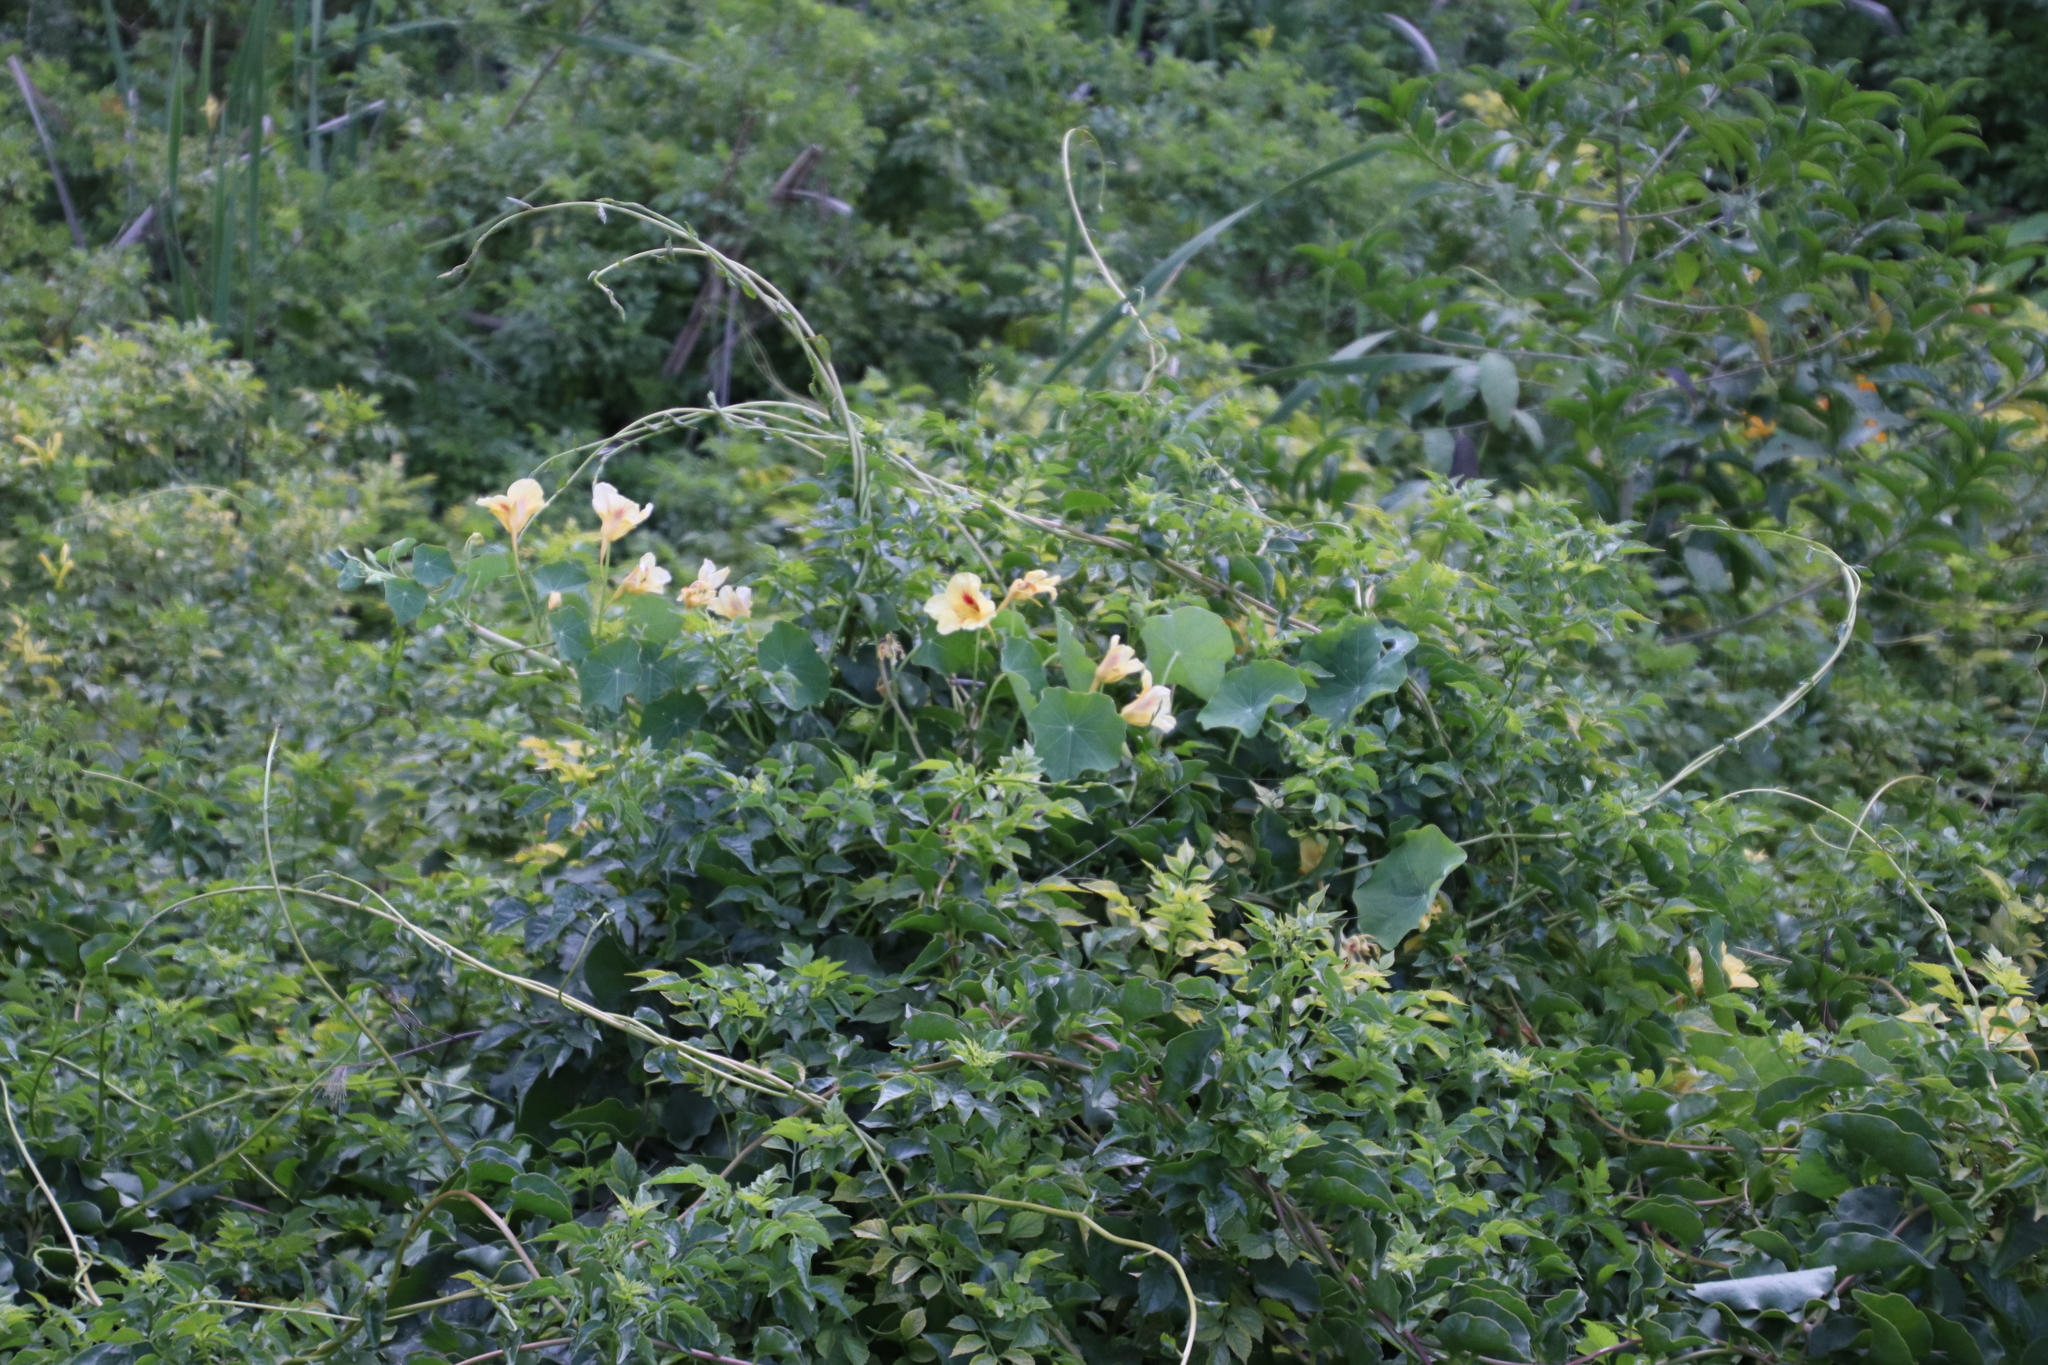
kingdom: Plantae
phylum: Tracheophyta
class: Magnoliopsida
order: Brassicales
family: Tropaeolaceae
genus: Tropaeolum
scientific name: Tropaeolum majus
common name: Nasturtium
